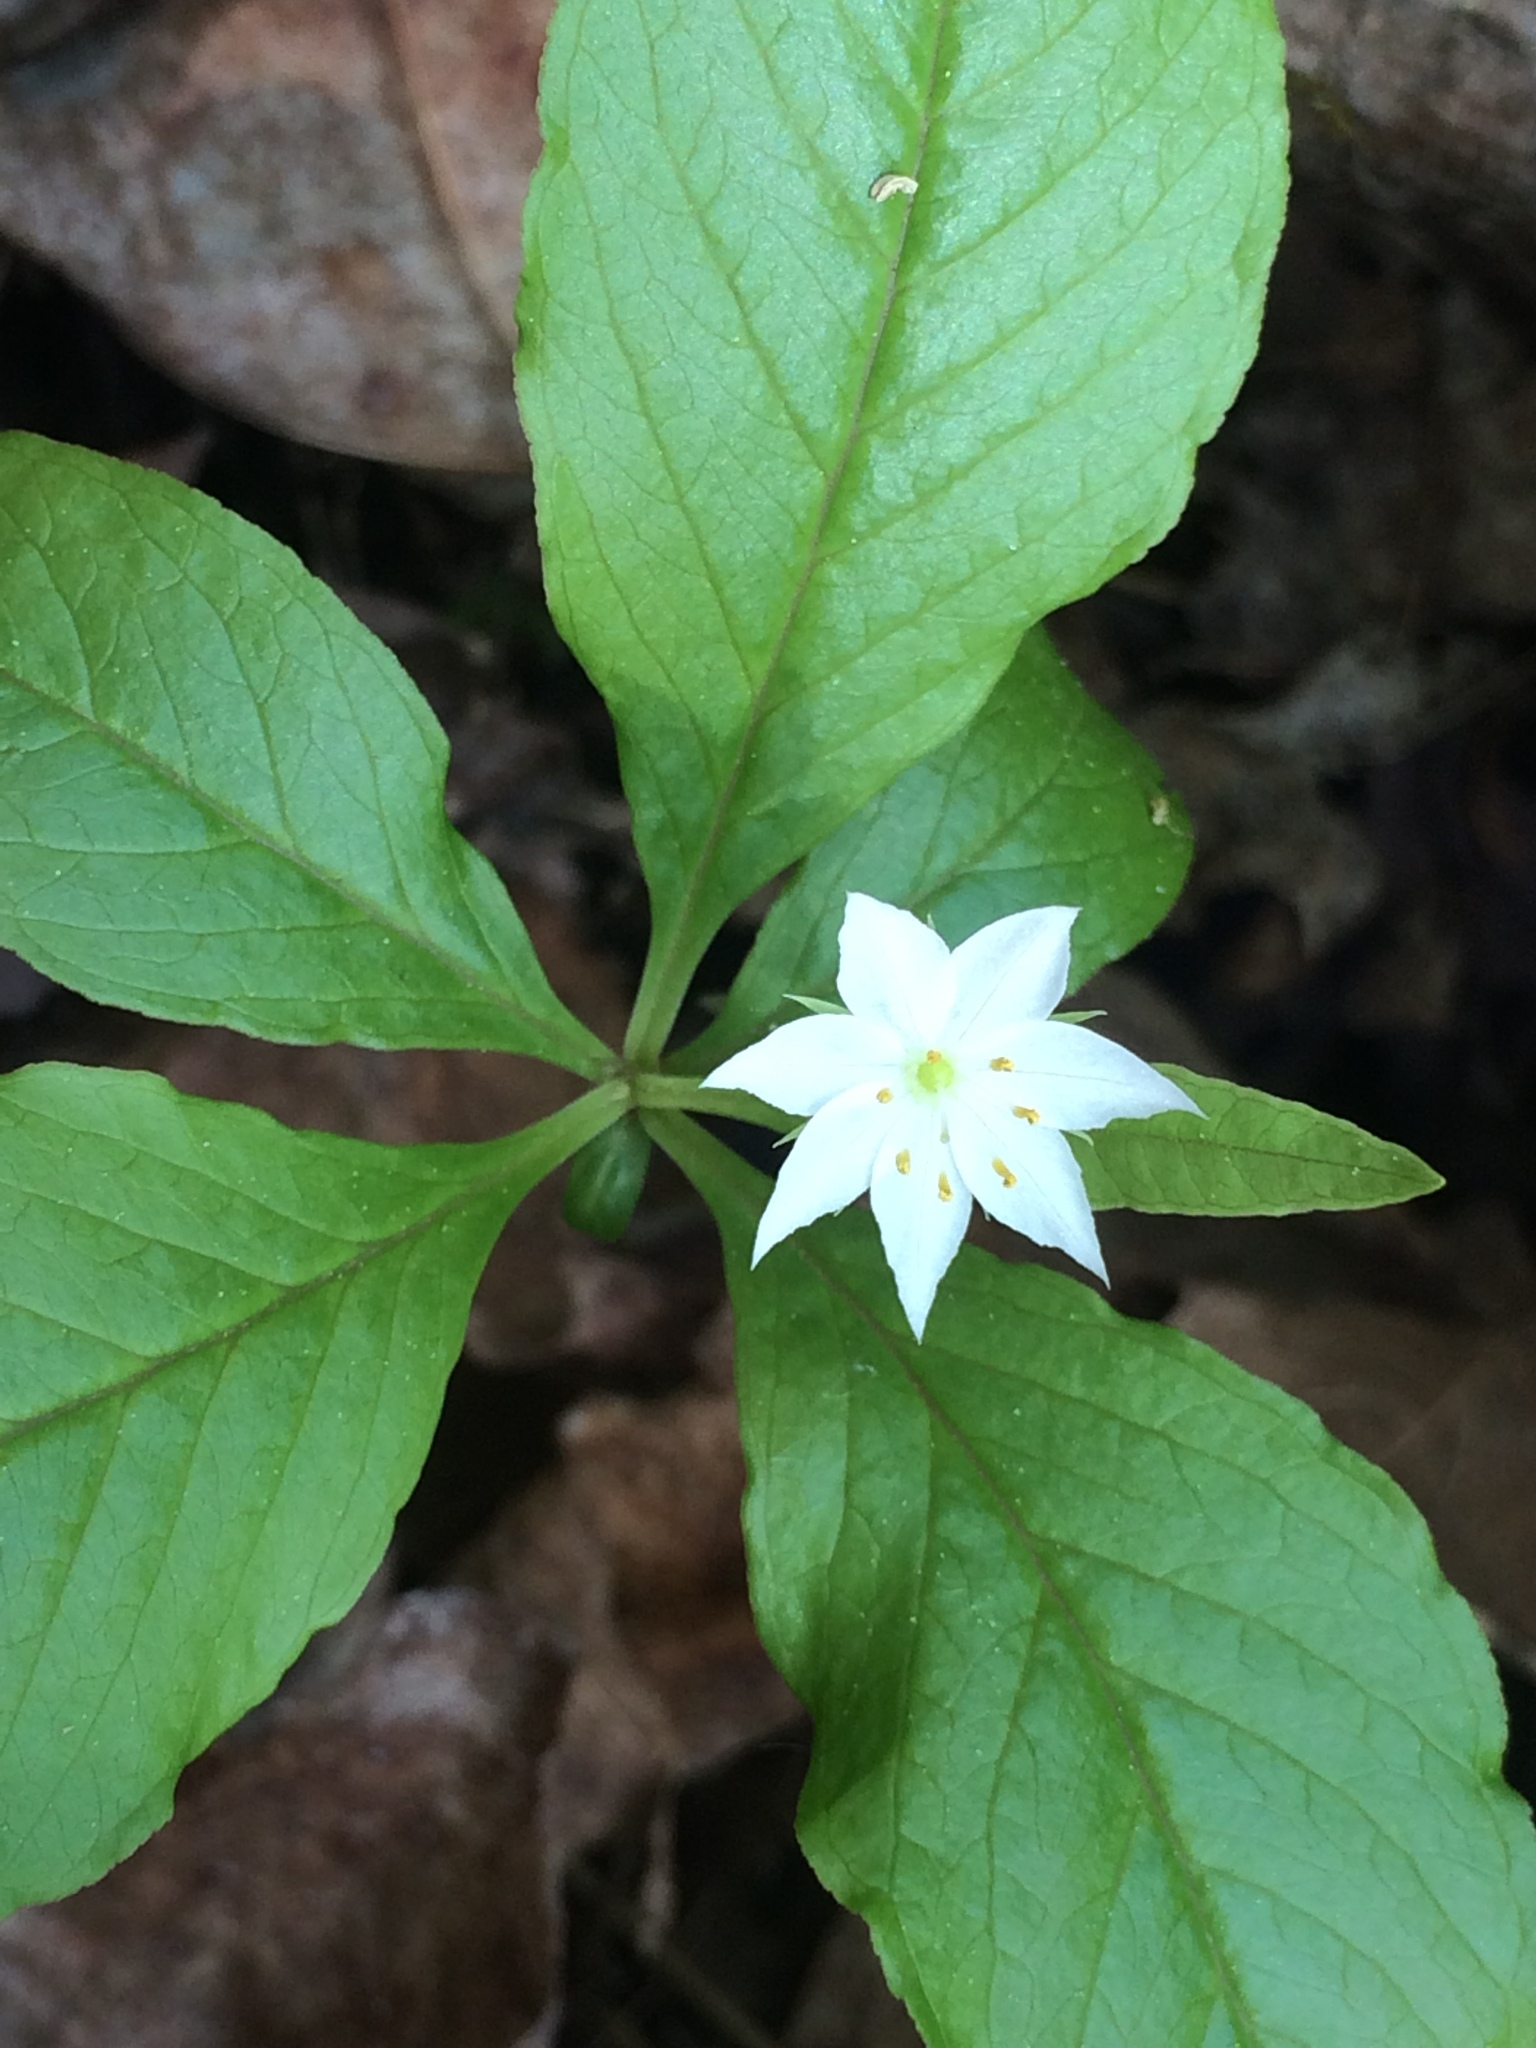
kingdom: Plantae
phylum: Tracheophyta
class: Magnoliopsida
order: Ericales
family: Primulaceae
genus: Lysimachia
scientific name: Lysimachia borealis
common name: American starflower
